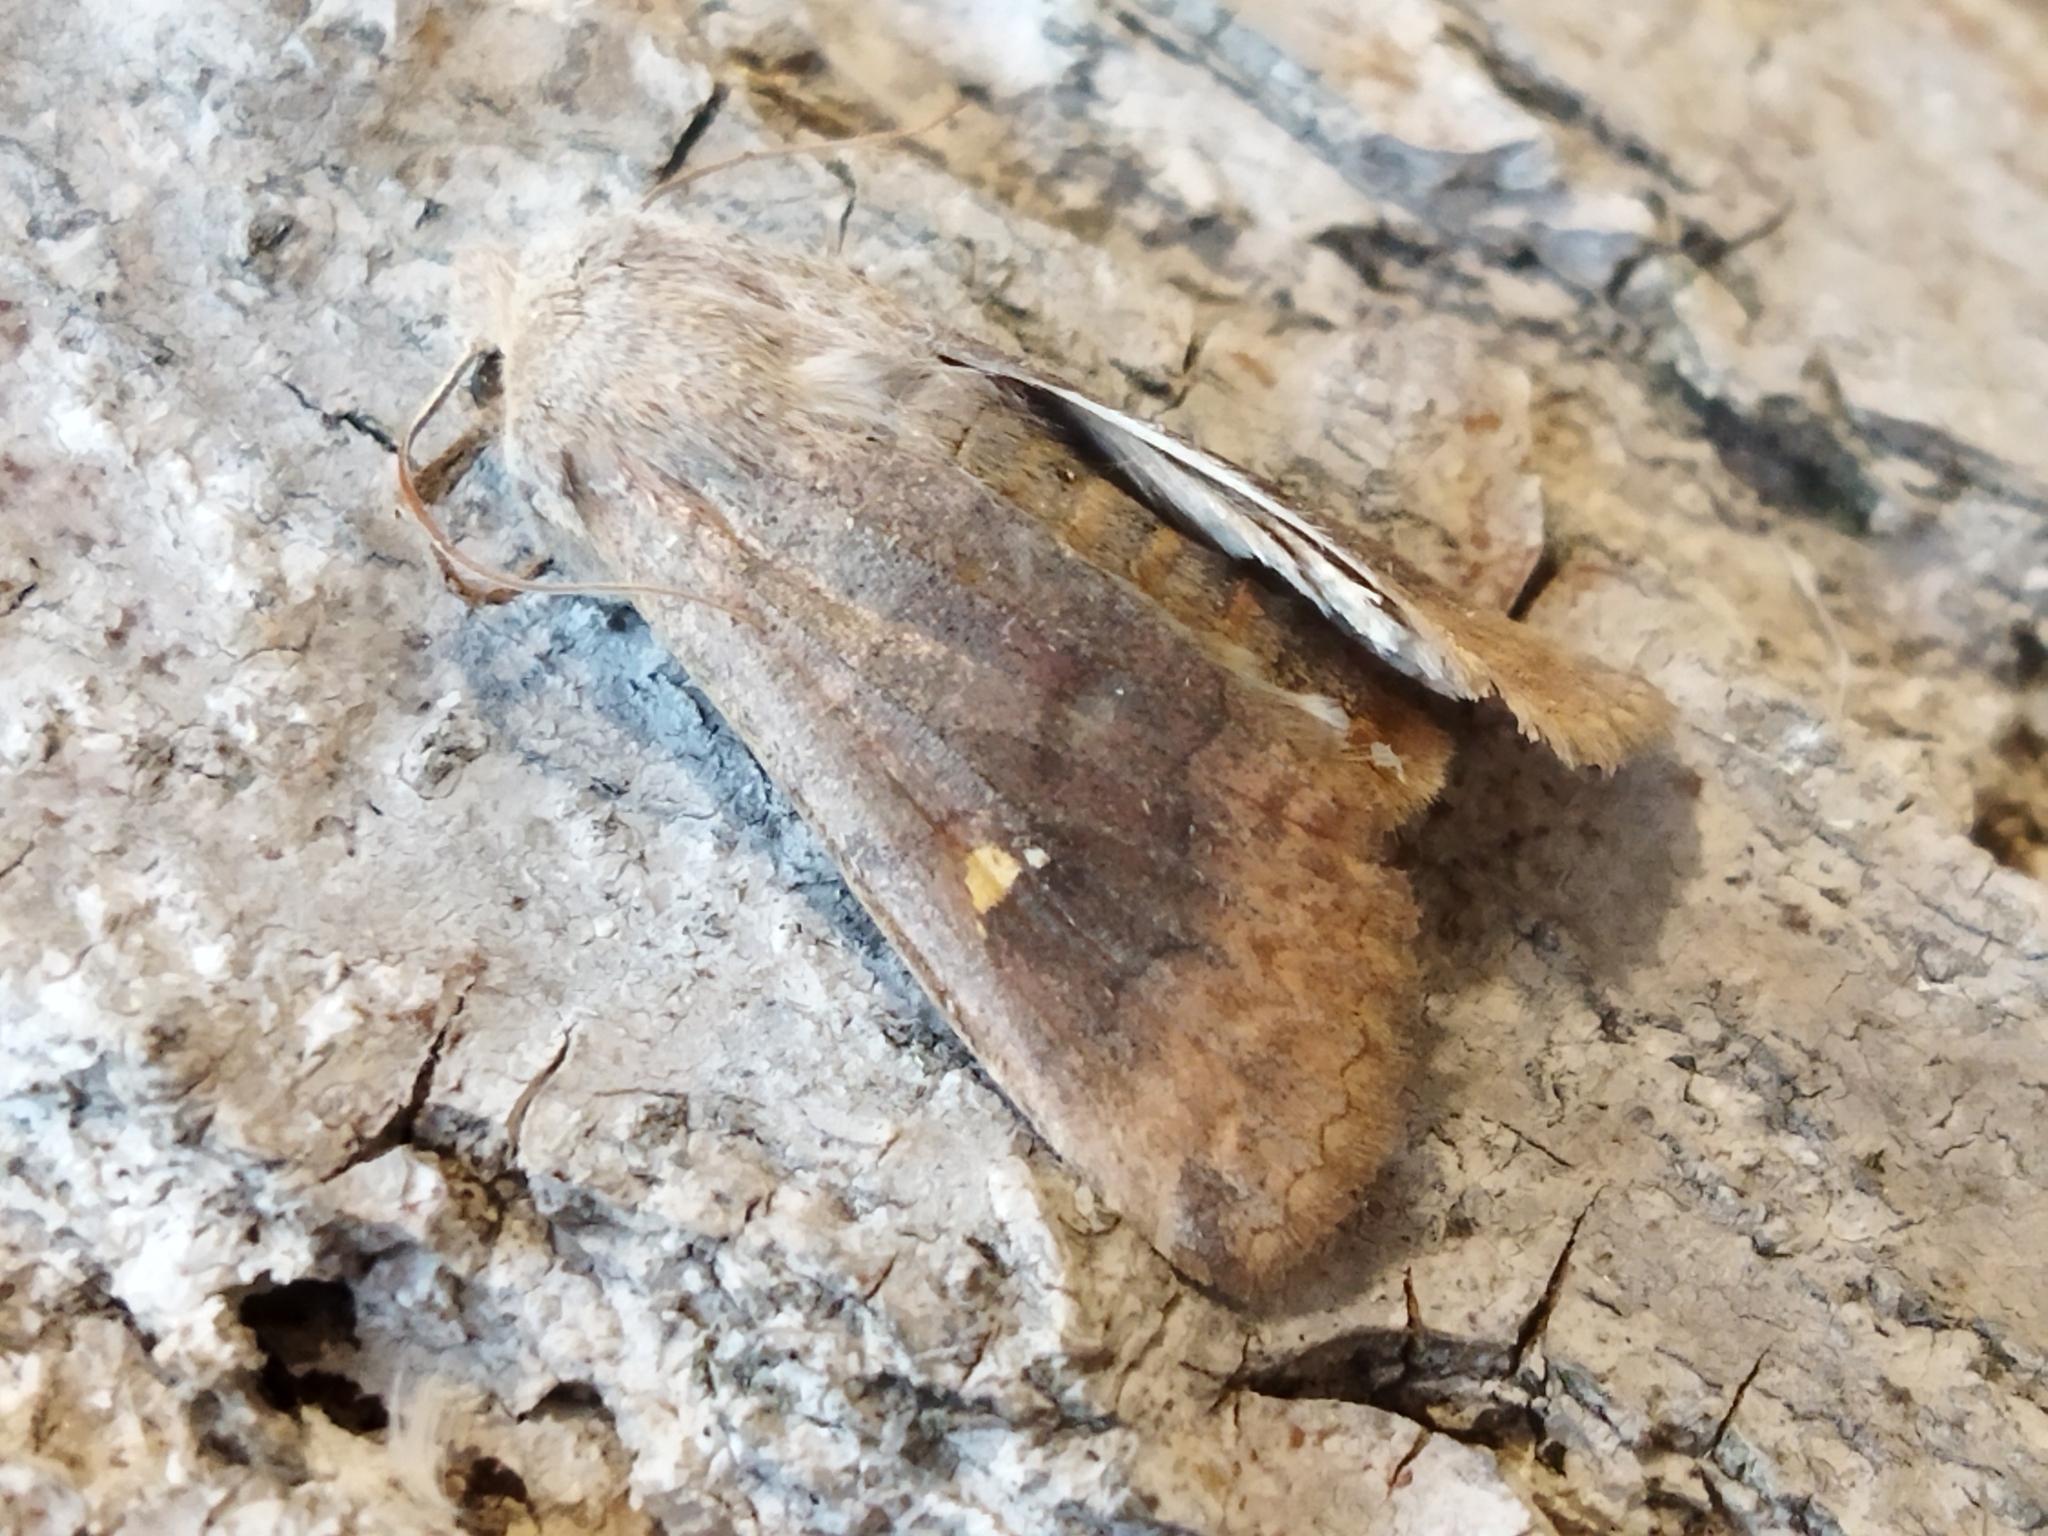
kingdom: Animalia
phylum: Arthropoda
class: Insecta
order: Lepidoptera
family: Noctuidae
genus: Eupsilia
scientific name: Eupsilia transversa
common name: Satellite
